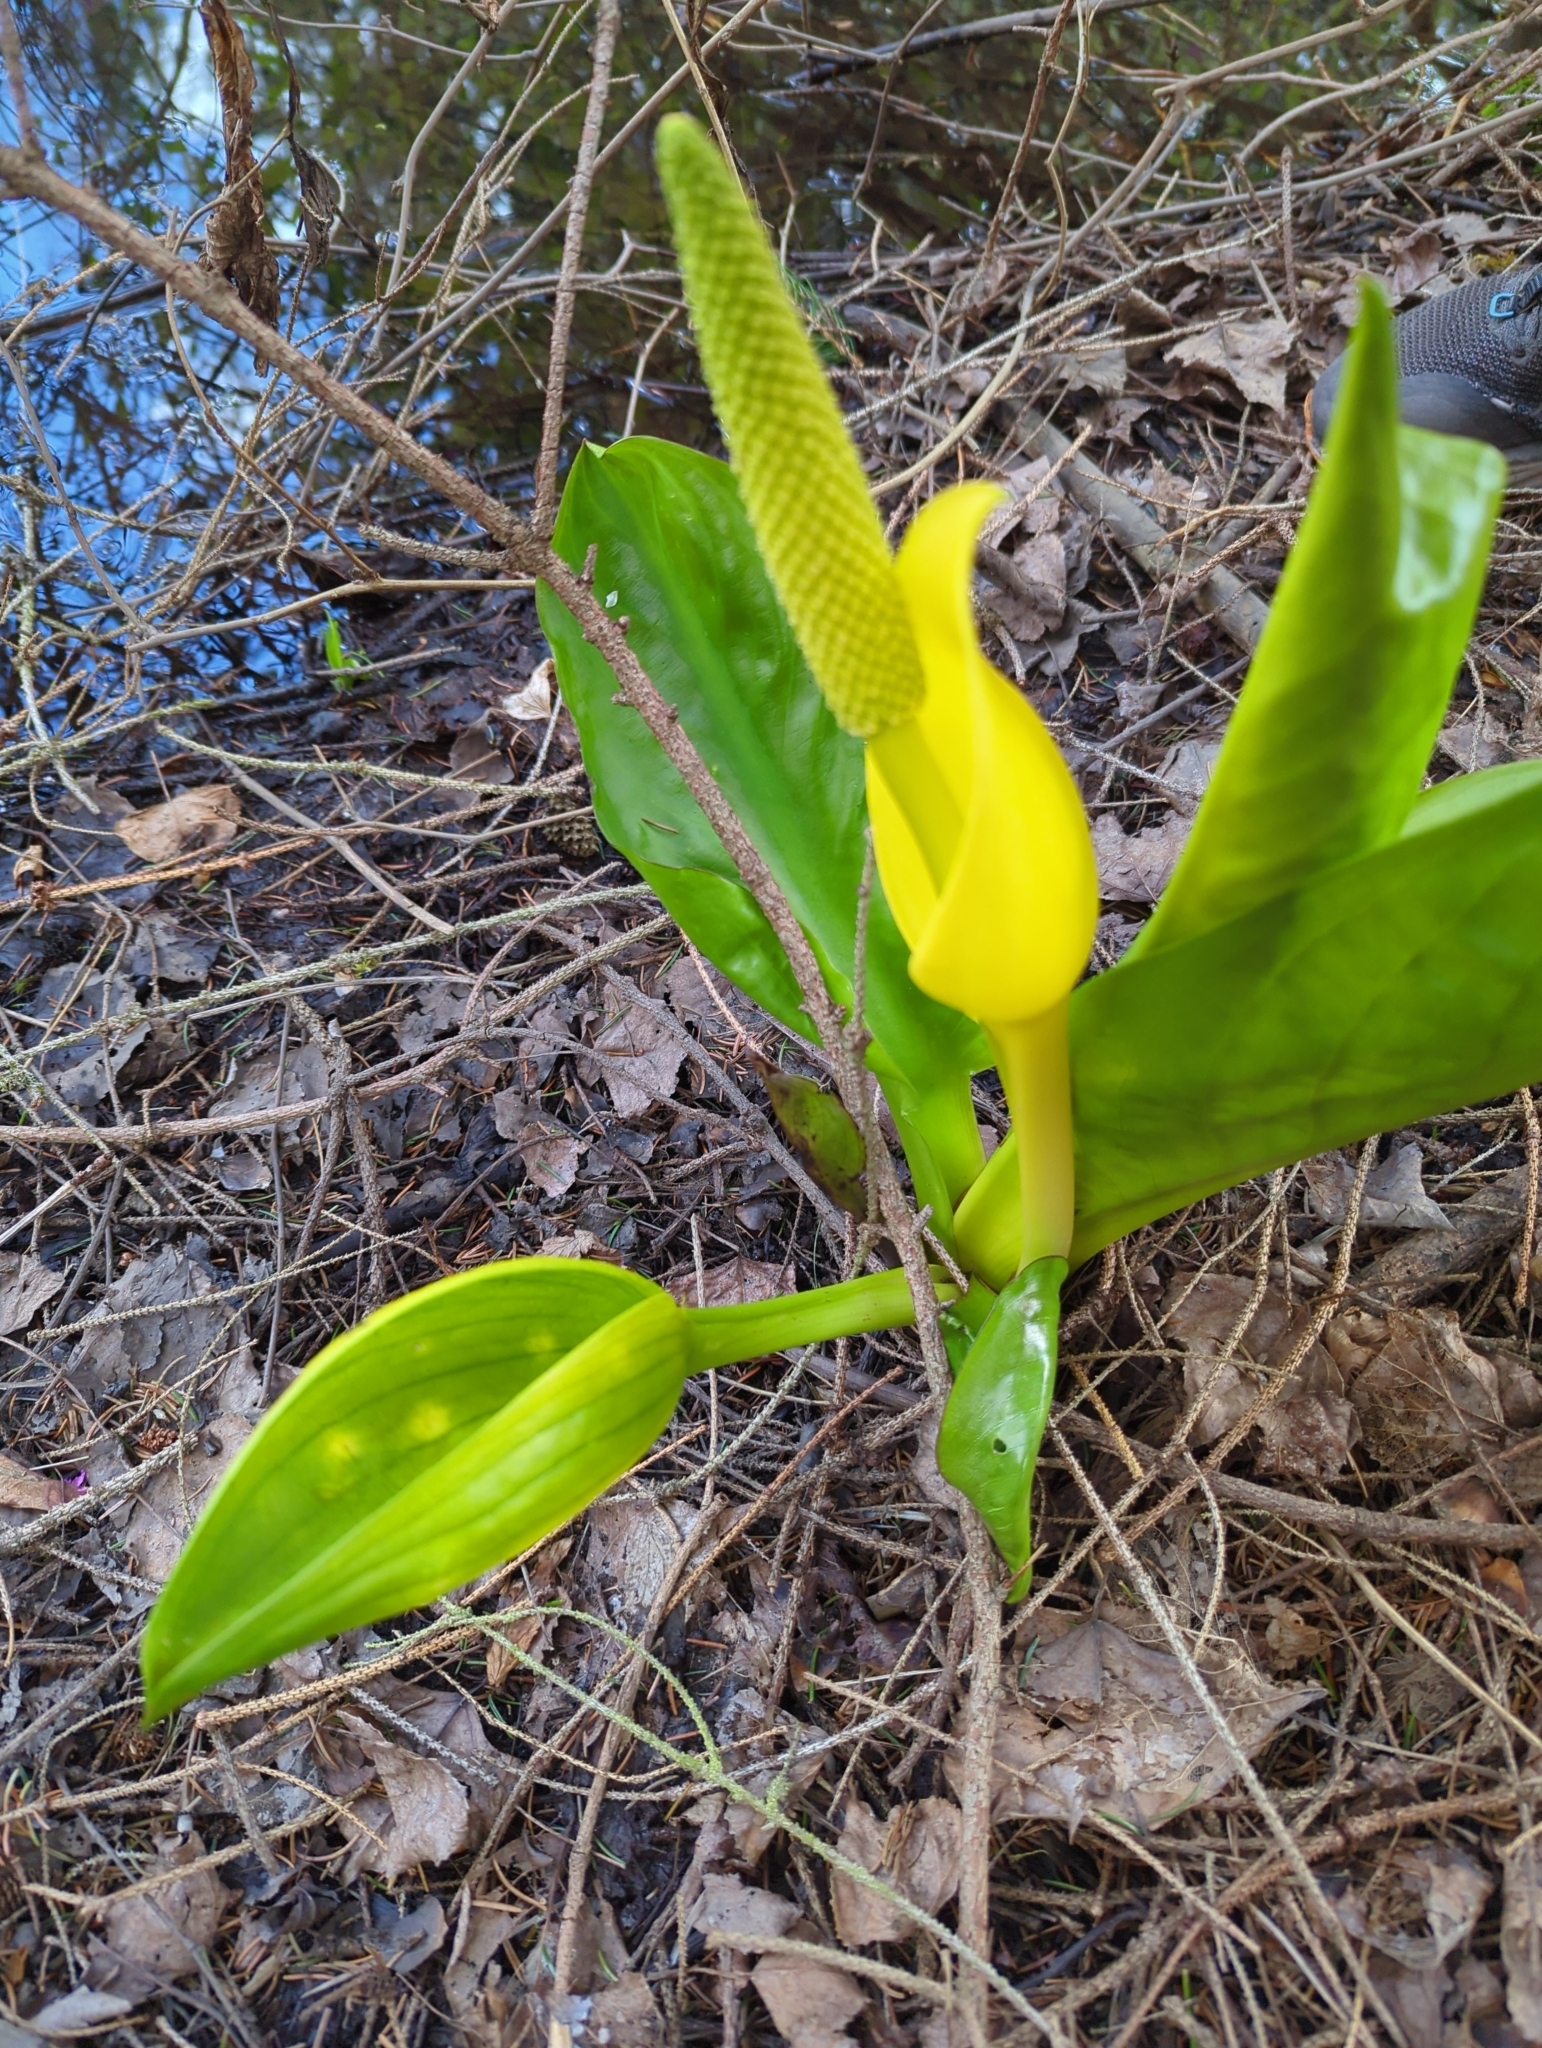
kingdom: Plantae
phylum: Tracheophyta
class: Liliopsida
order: Alismatales
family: Araceae
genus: Lysichiton
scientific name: Lysichiton americanus
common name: American skunk cabbage
